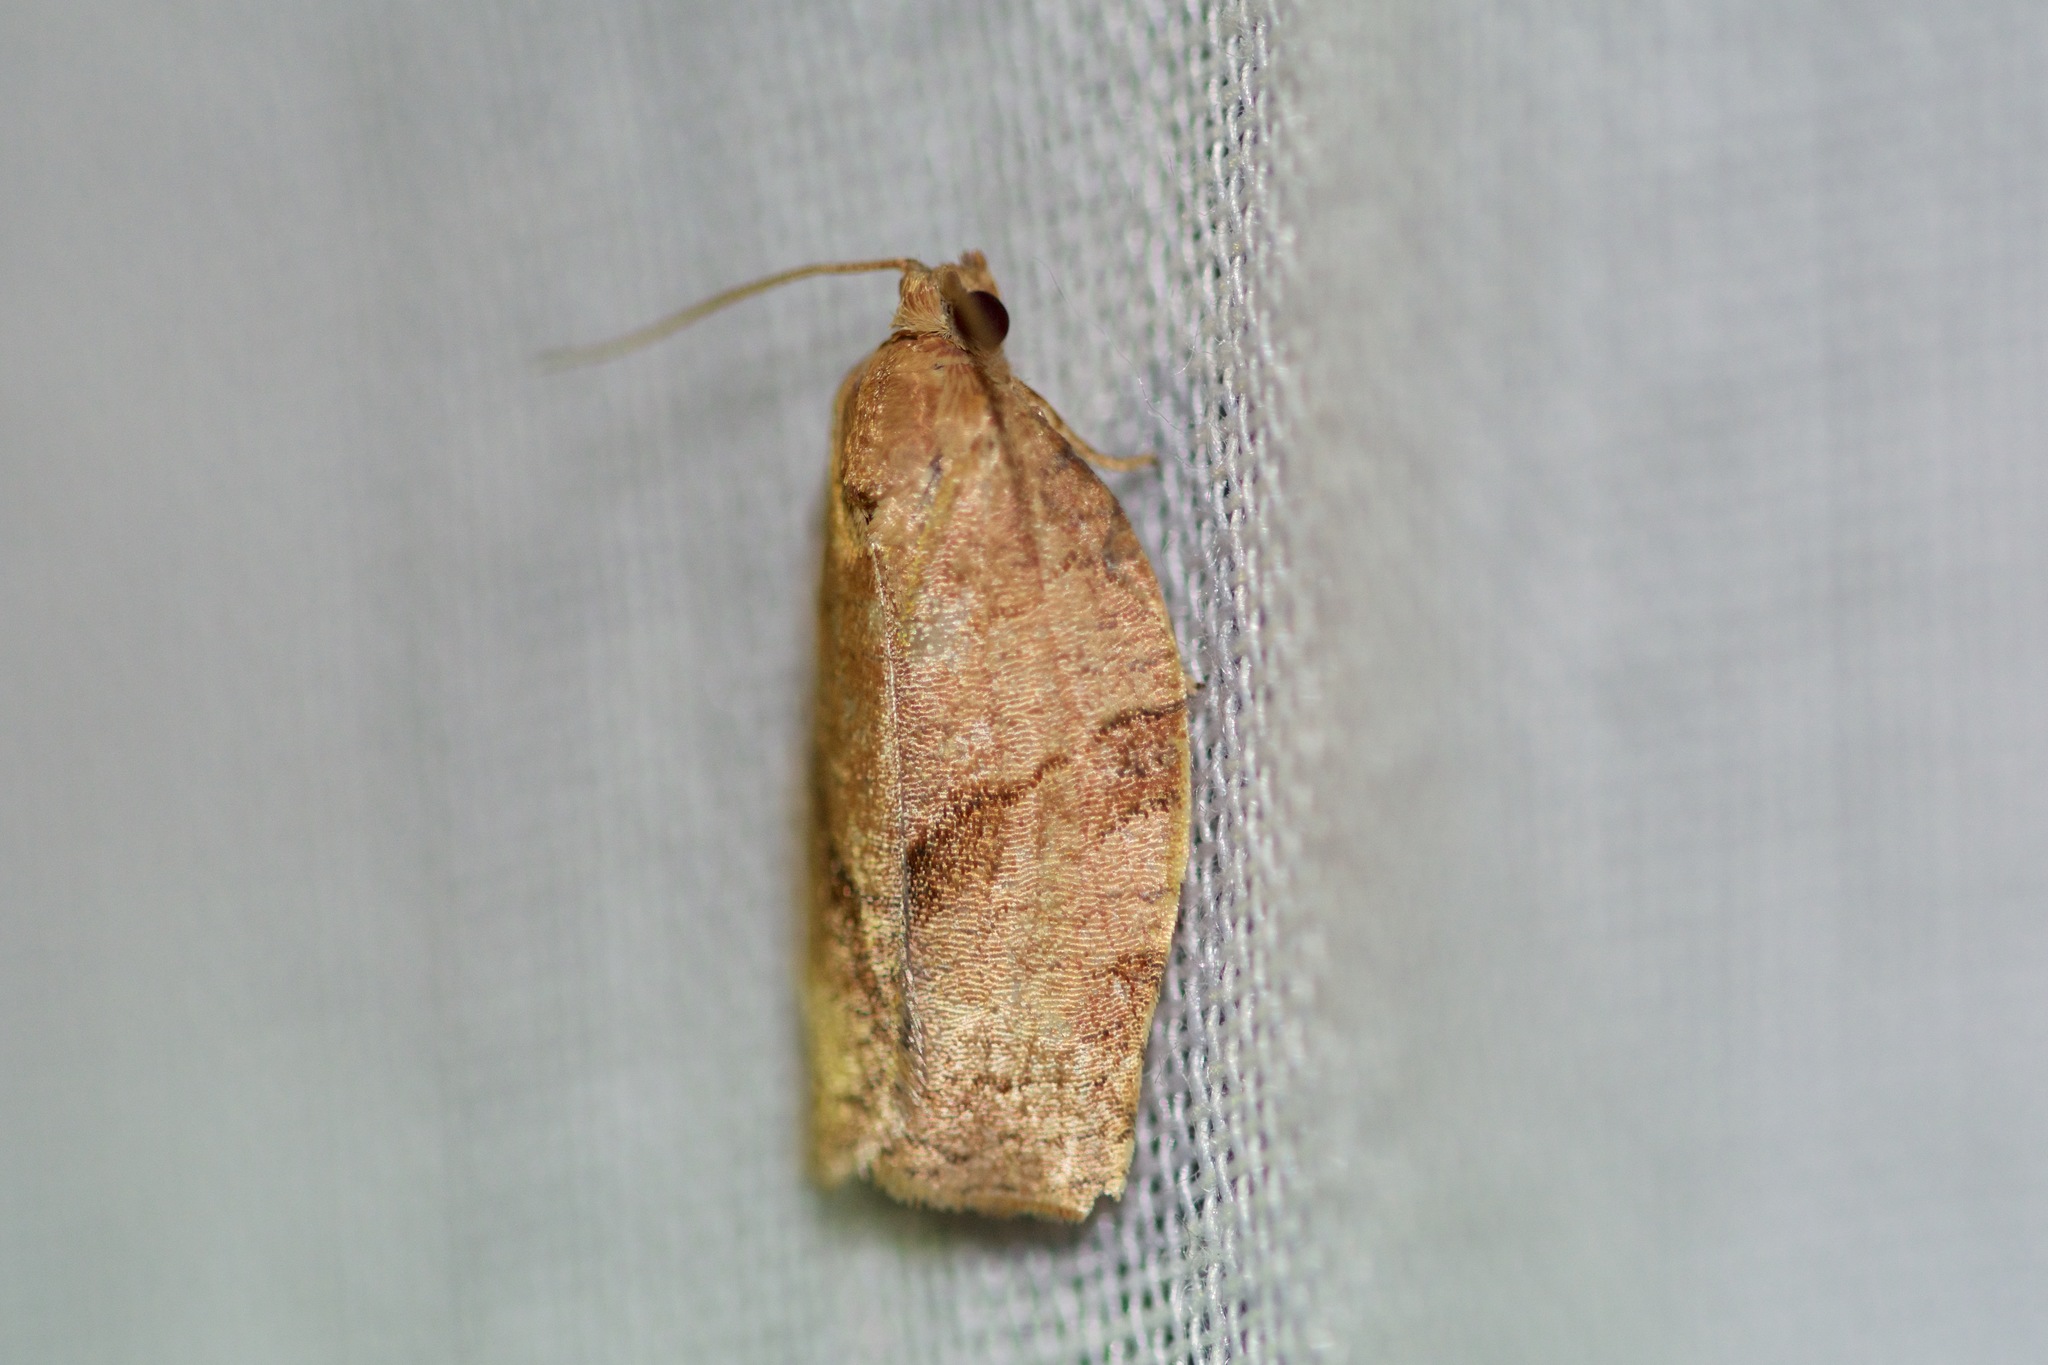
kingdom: Animalia
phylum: Arthropoda
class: Insecta
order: Lepidoptera
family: Tortricidae
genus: Choristoneura
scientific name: Choristoneura rosaceana
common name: Oblique-banded leafroller moth
